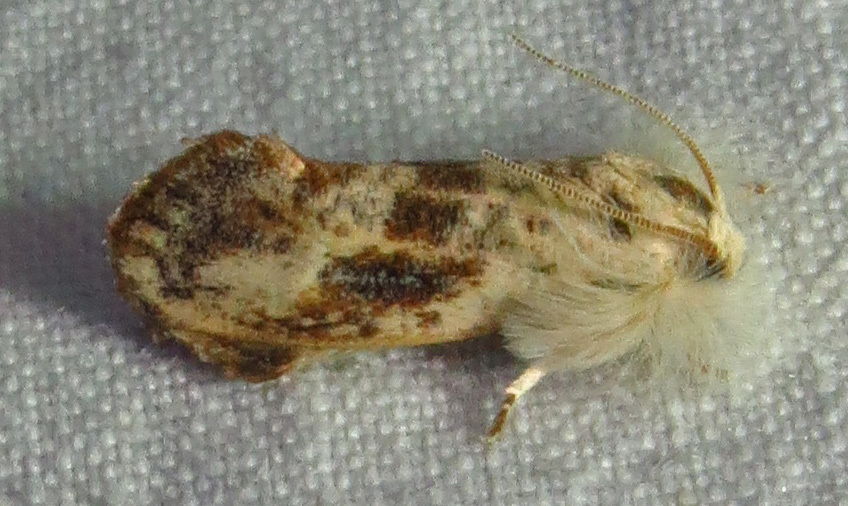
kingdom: Animalia
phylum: Arthropoda
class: Insecta
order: Lepidoptera
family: Tineidae
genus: Acrolophus
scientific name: Acrolophus mycetophagus
